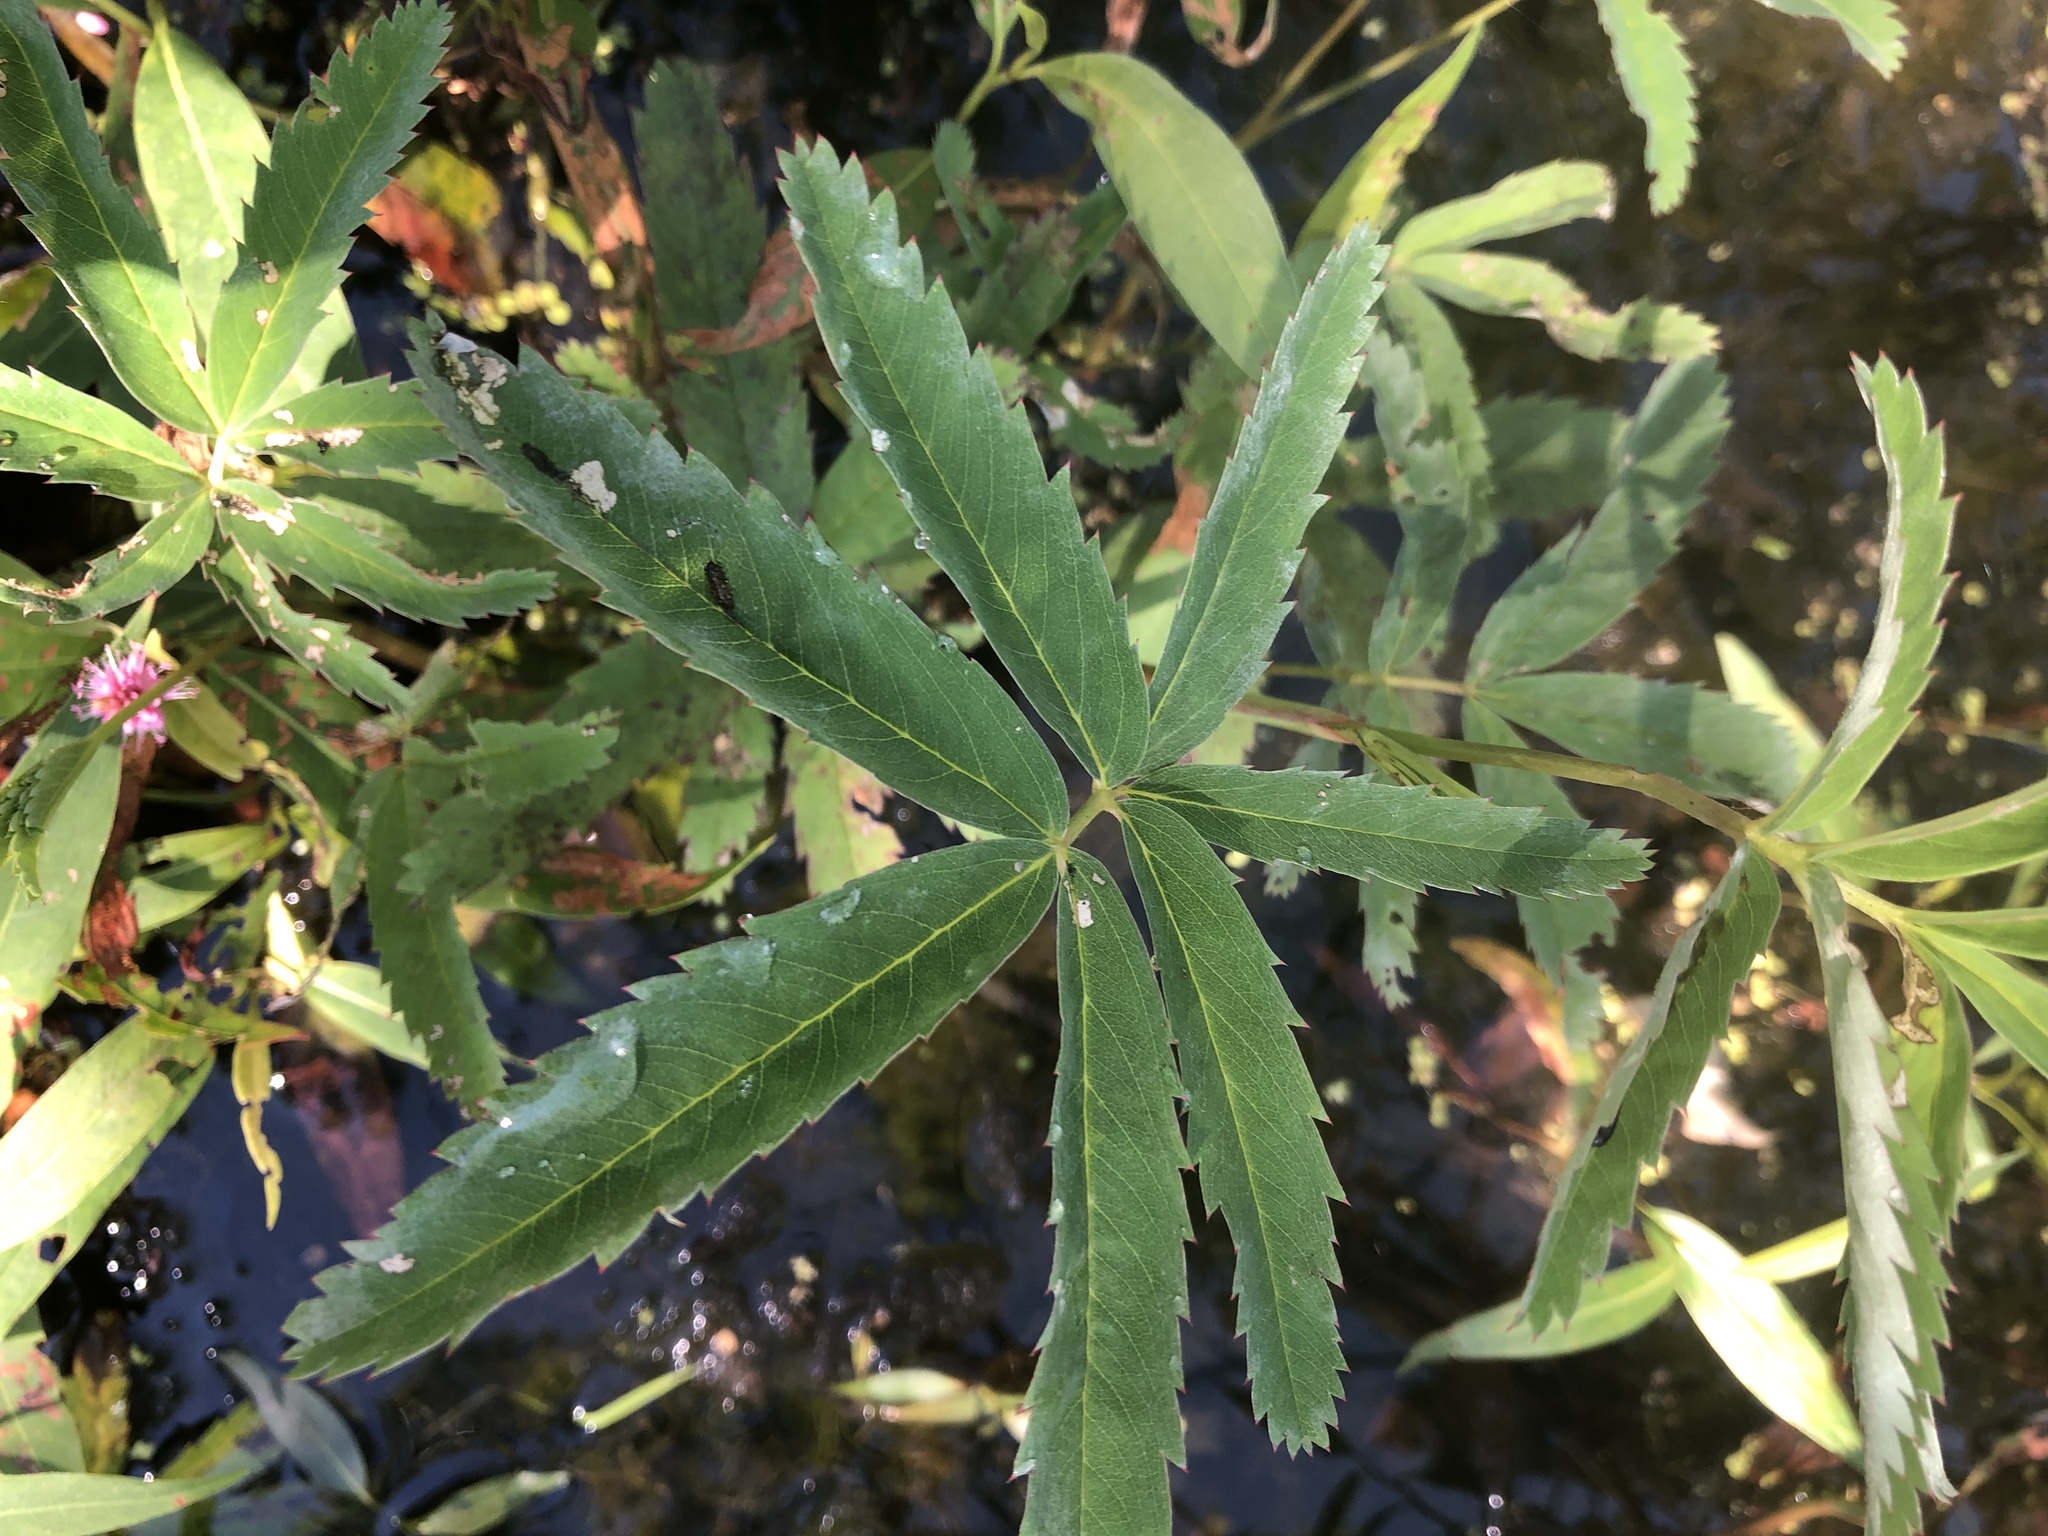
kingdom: Plantae
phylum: Tracheophyta
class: Magnoliopsida
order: Rosales
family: Rosaceae
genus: Comarum
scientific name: Comarum palustre
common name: Marsh cinquefoil
